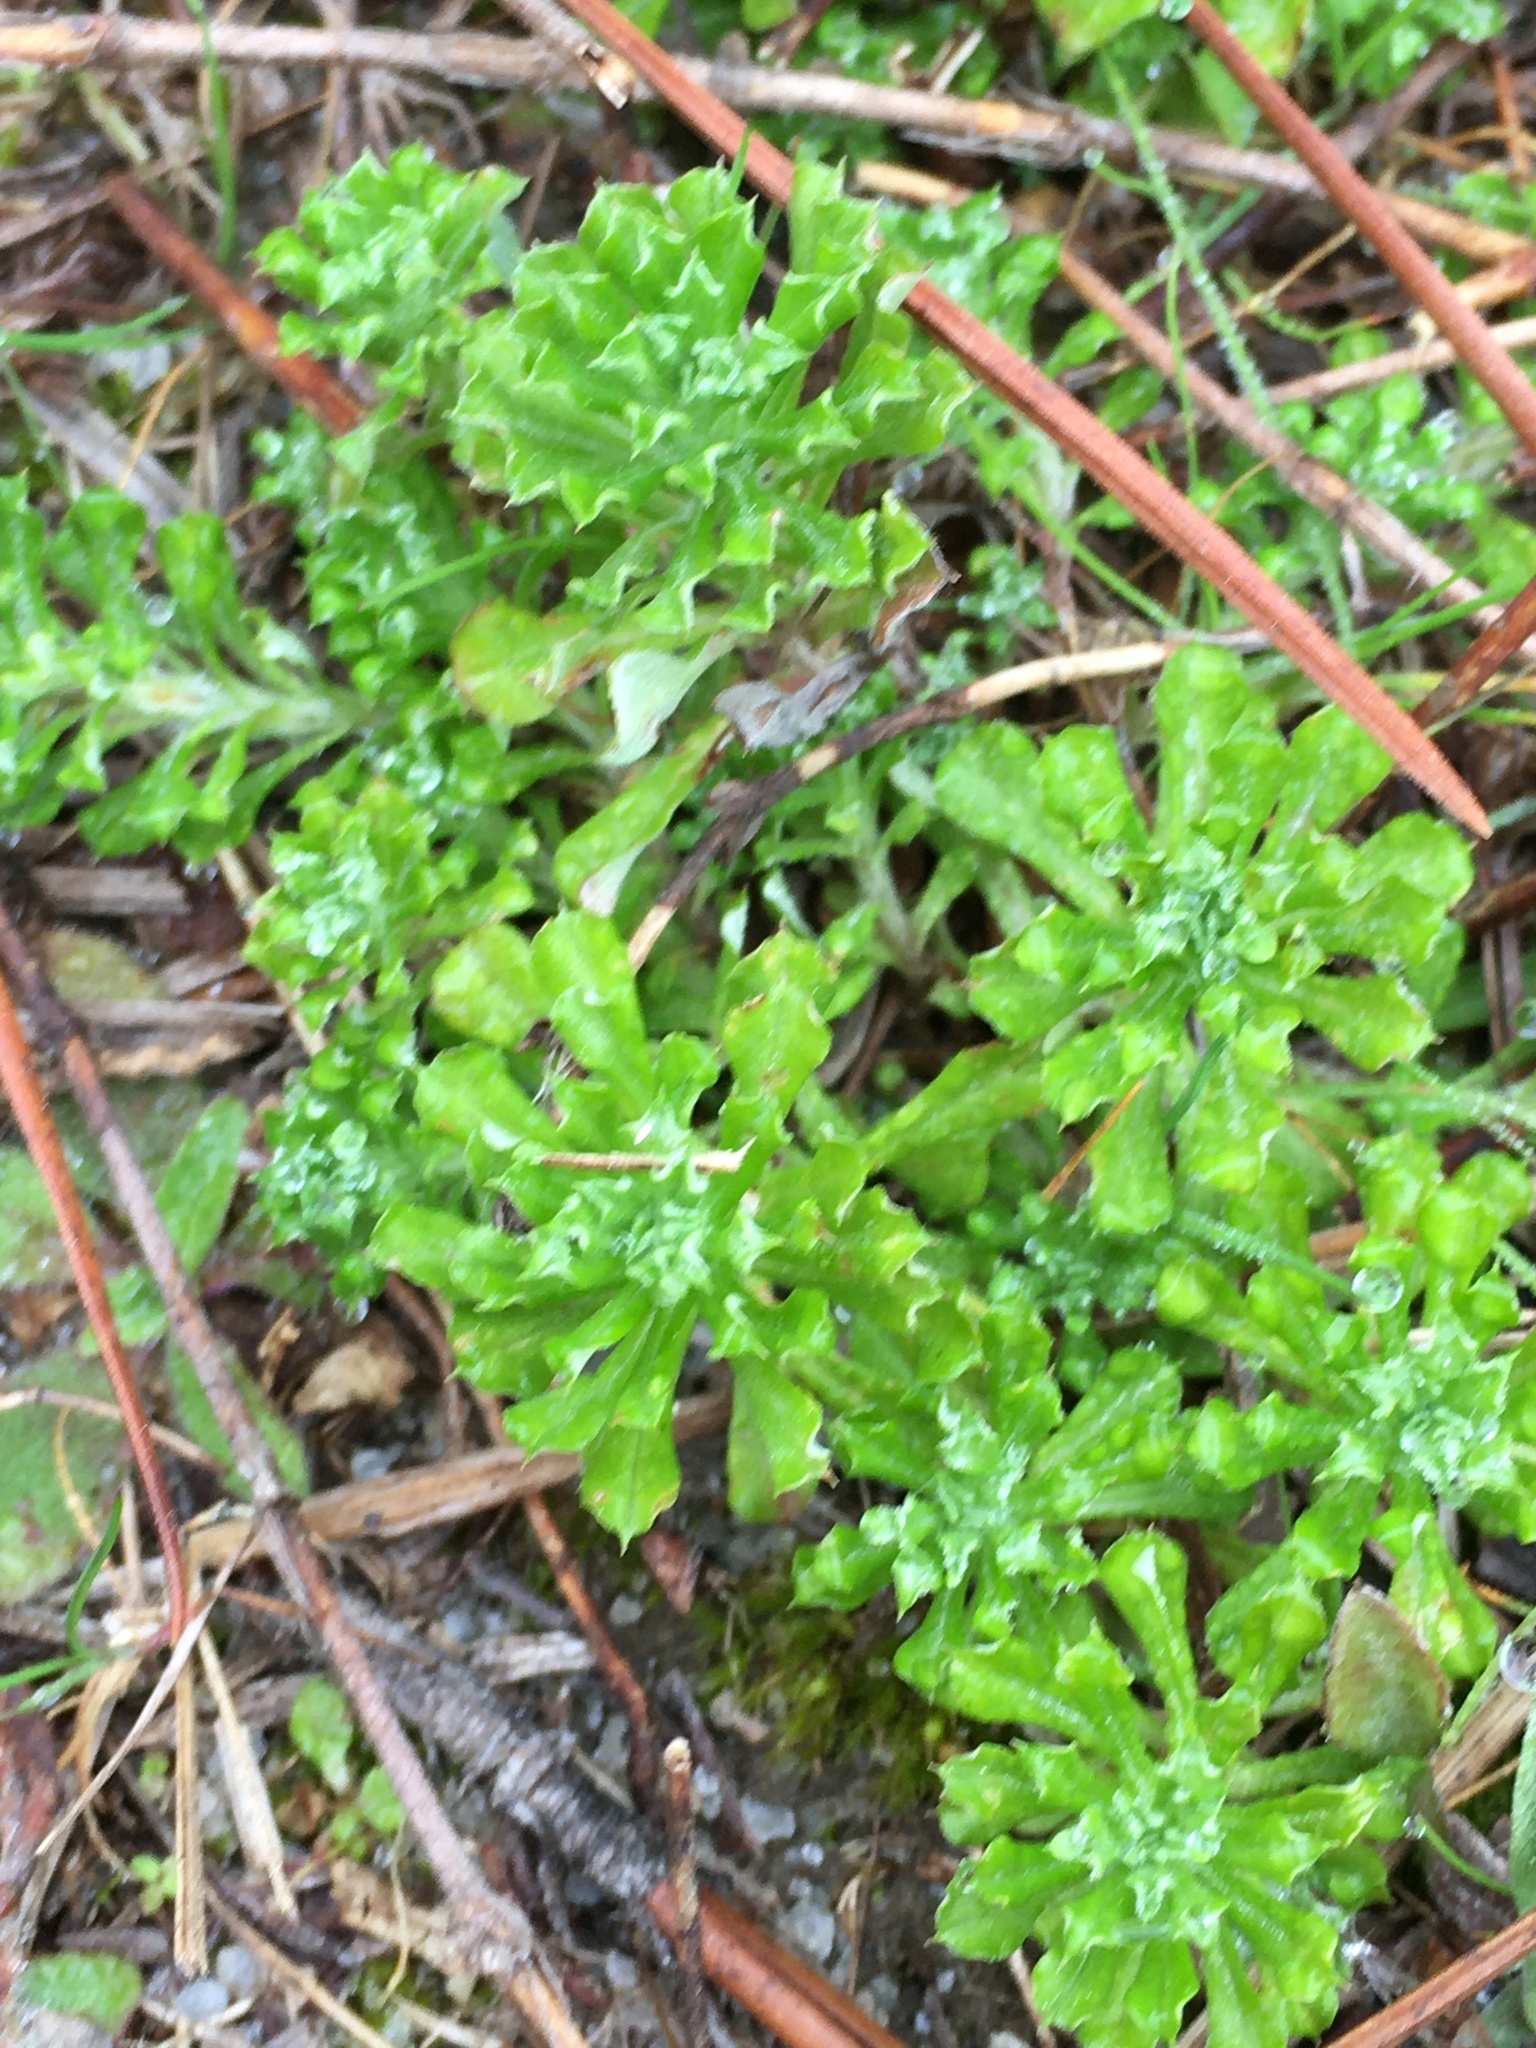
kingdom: Plantae
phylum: Tracheophyta
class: Magnoliopsida
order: Asterales
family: Asteraceae
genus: Facelis
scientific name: Facelis retusa
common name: Annual trampweed
